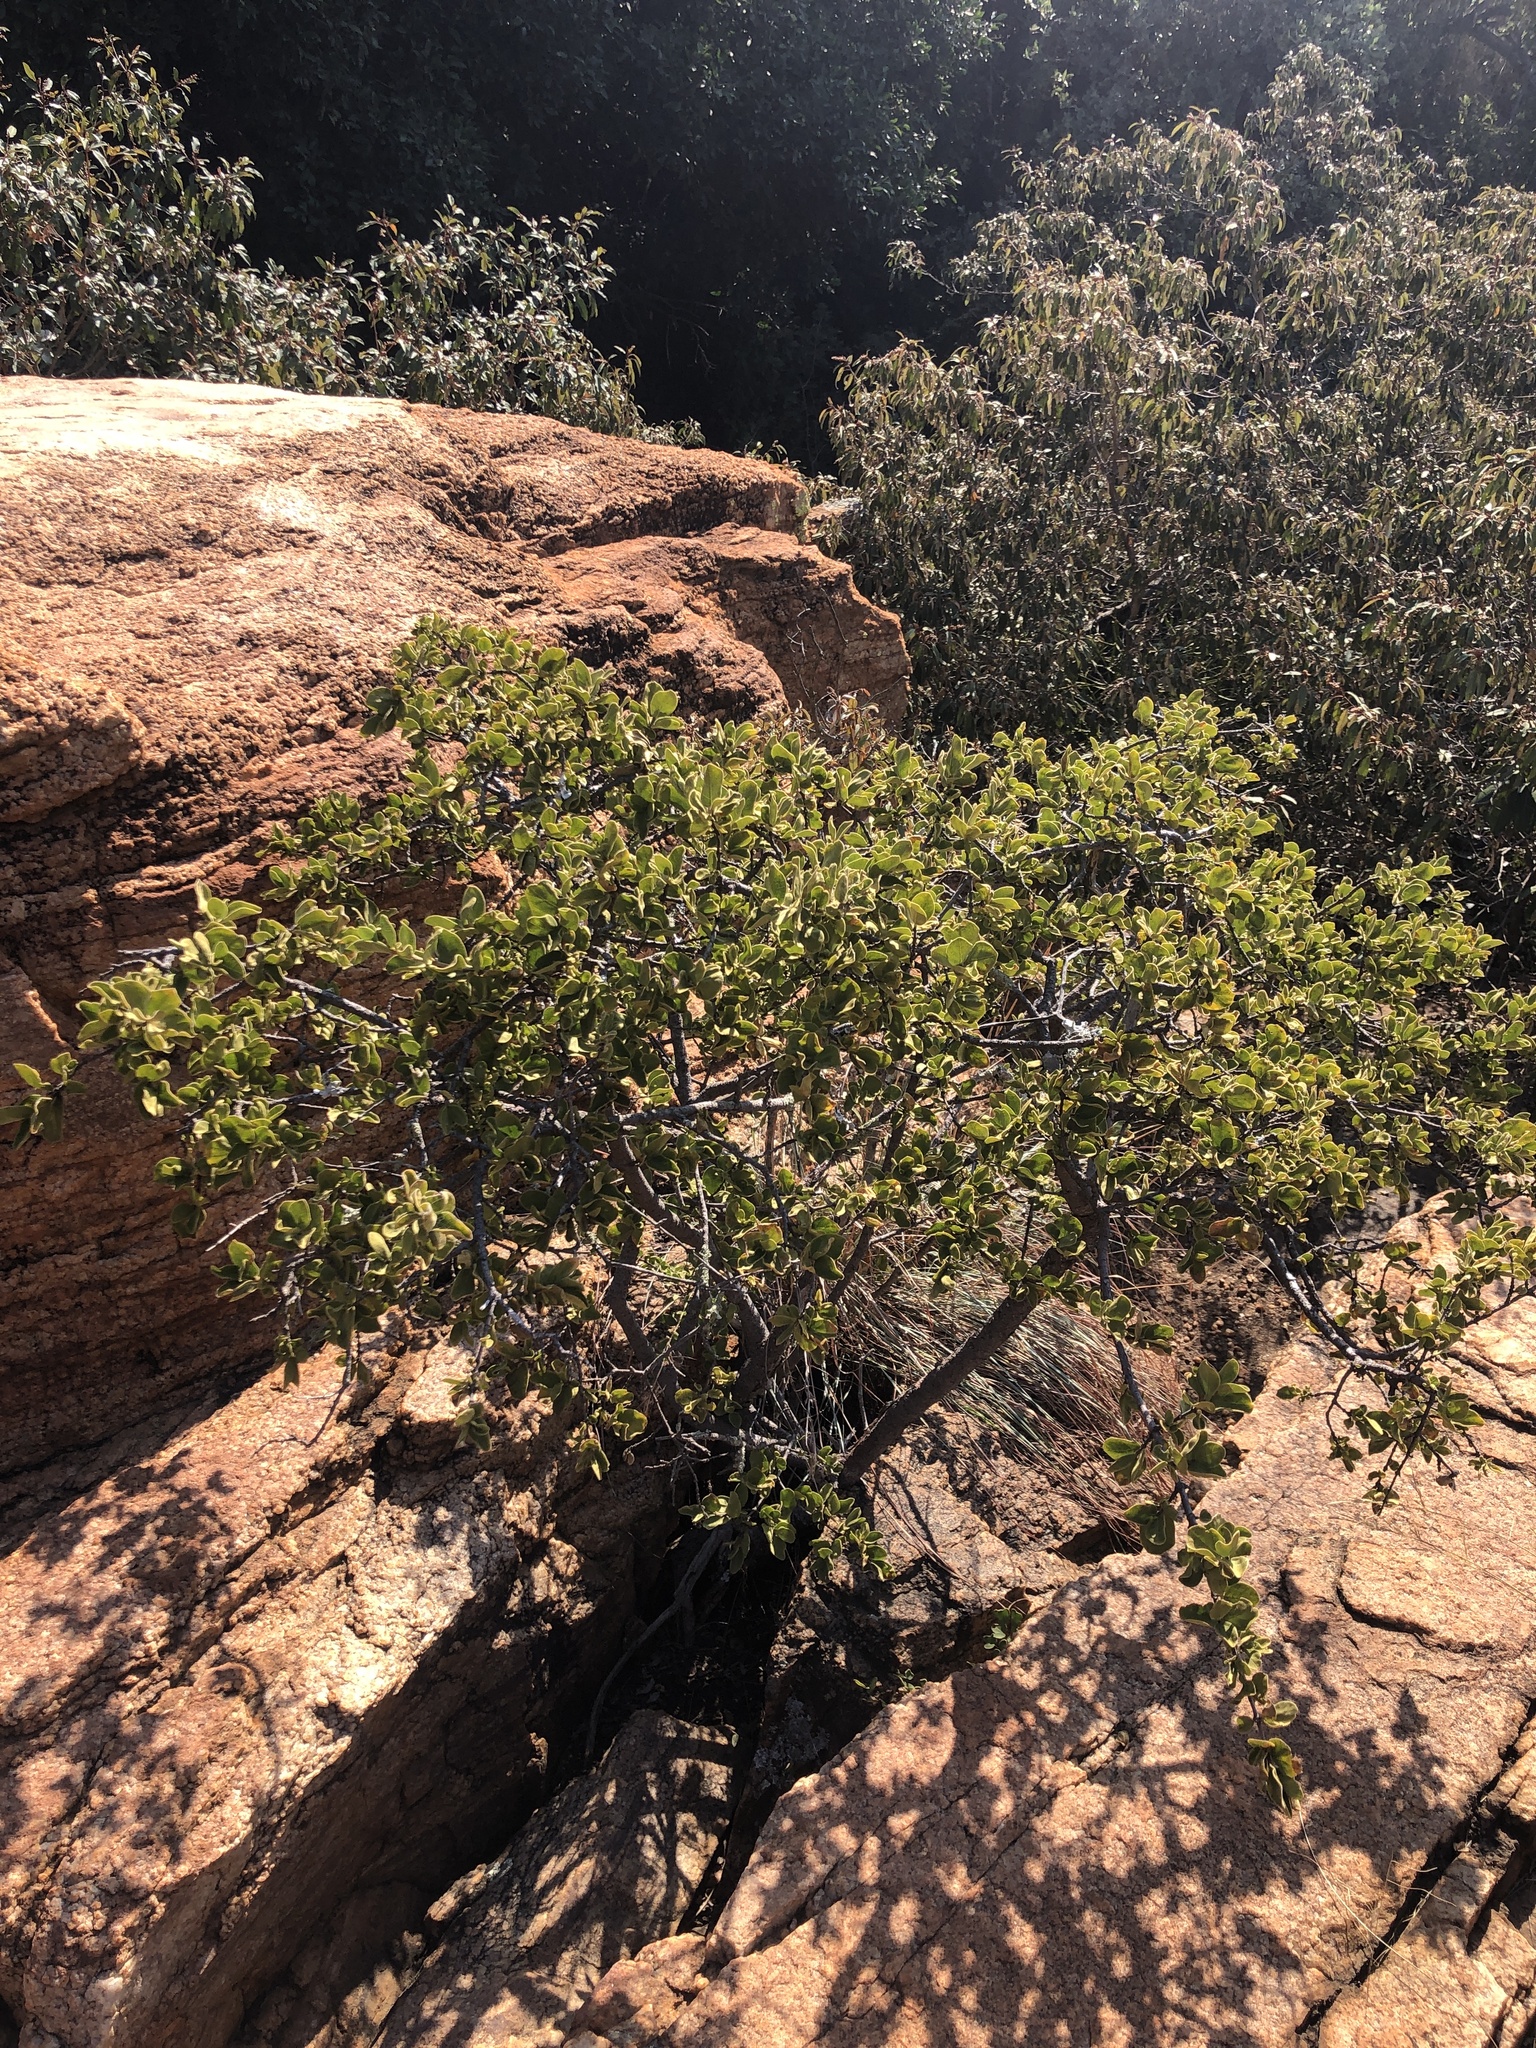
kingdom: Plantae
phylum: Tracheophyta
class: Magnoliopsida
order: Gentianales
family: Rubiaceae
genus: Vangueria
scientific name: Vangueria parvifolia
